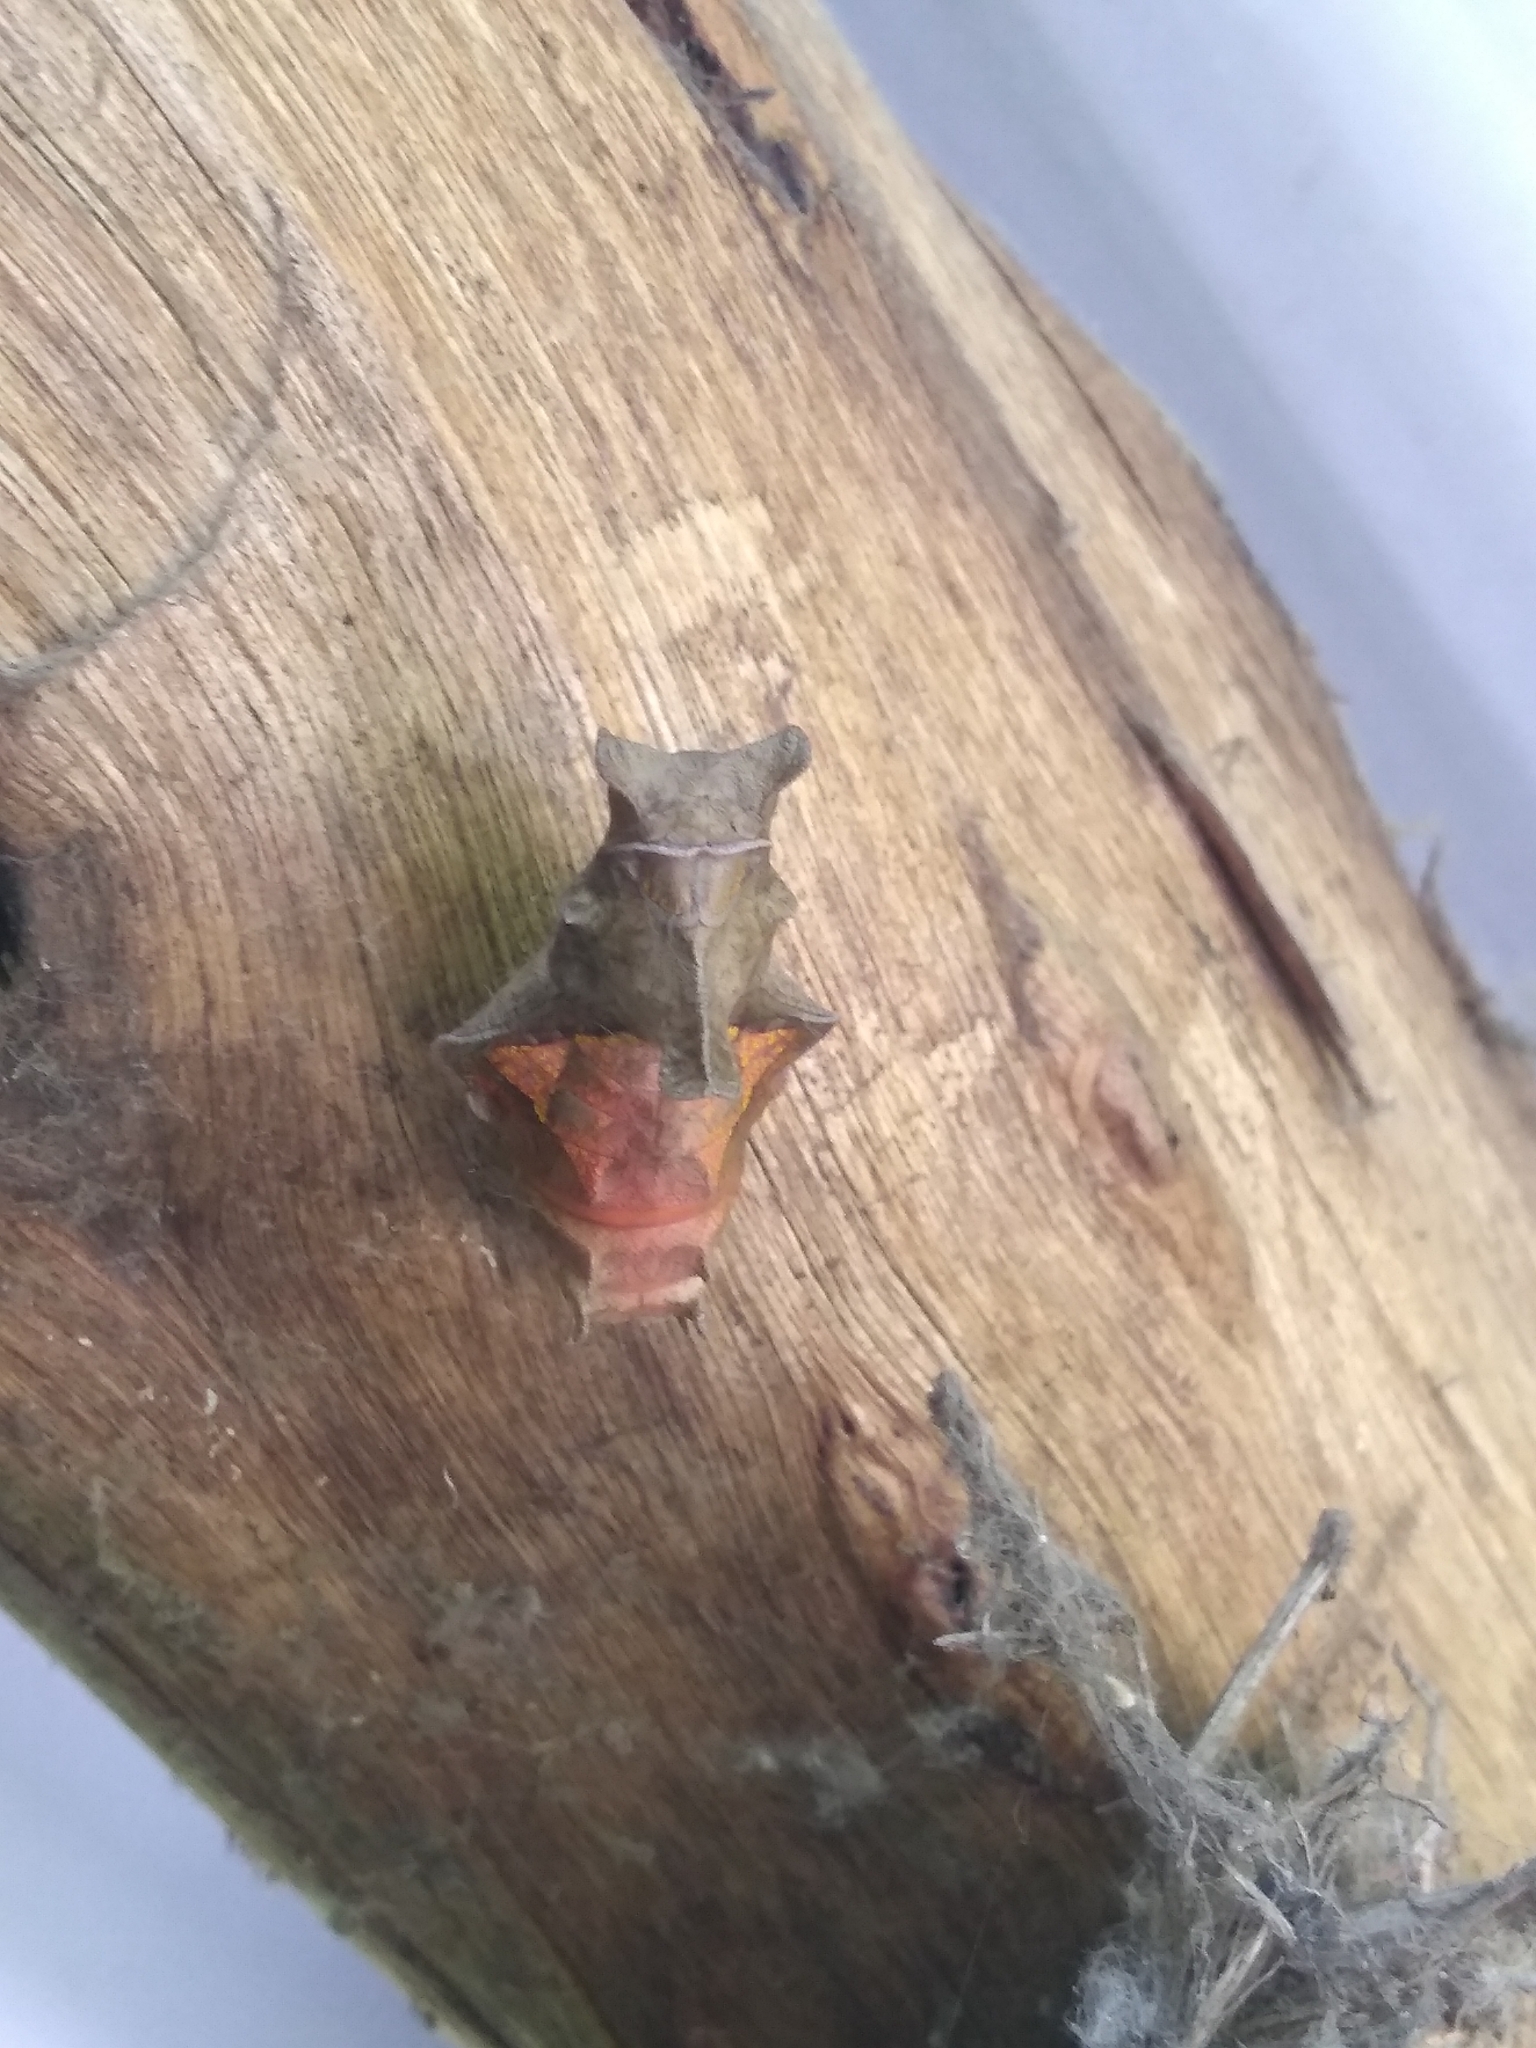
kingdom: Animalia
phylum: Arthropoda
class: Insecta
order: Lepidoptera
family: Papilionidae
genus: Battus
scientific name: Battus polydamas
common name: Polydamas swallowtail
